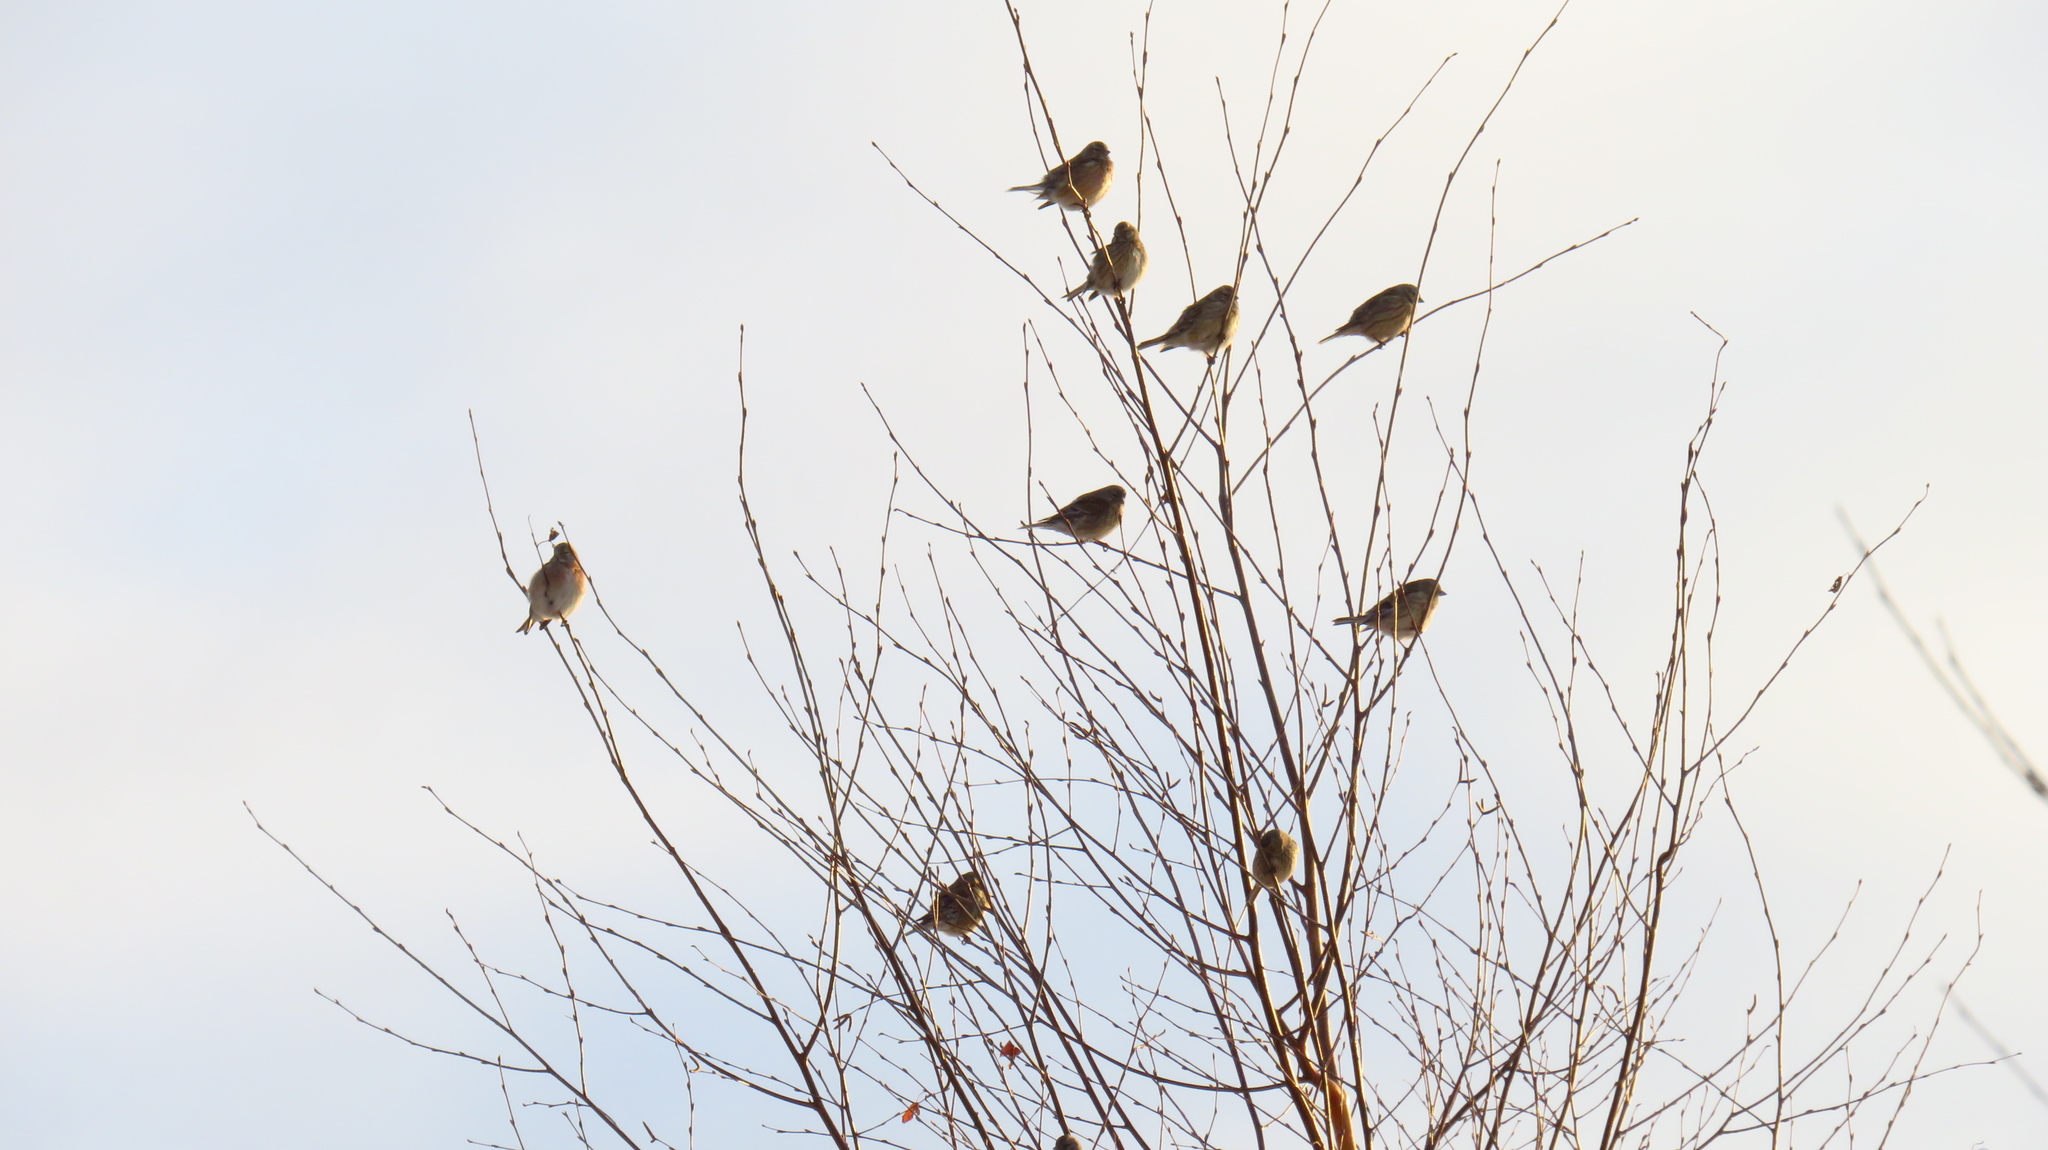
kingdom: Animalia
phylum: Chordata
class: Aves
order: Passeriformes
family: Fringillidae
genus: Linaria
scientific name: Linaria cannabina
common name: Common linnet
